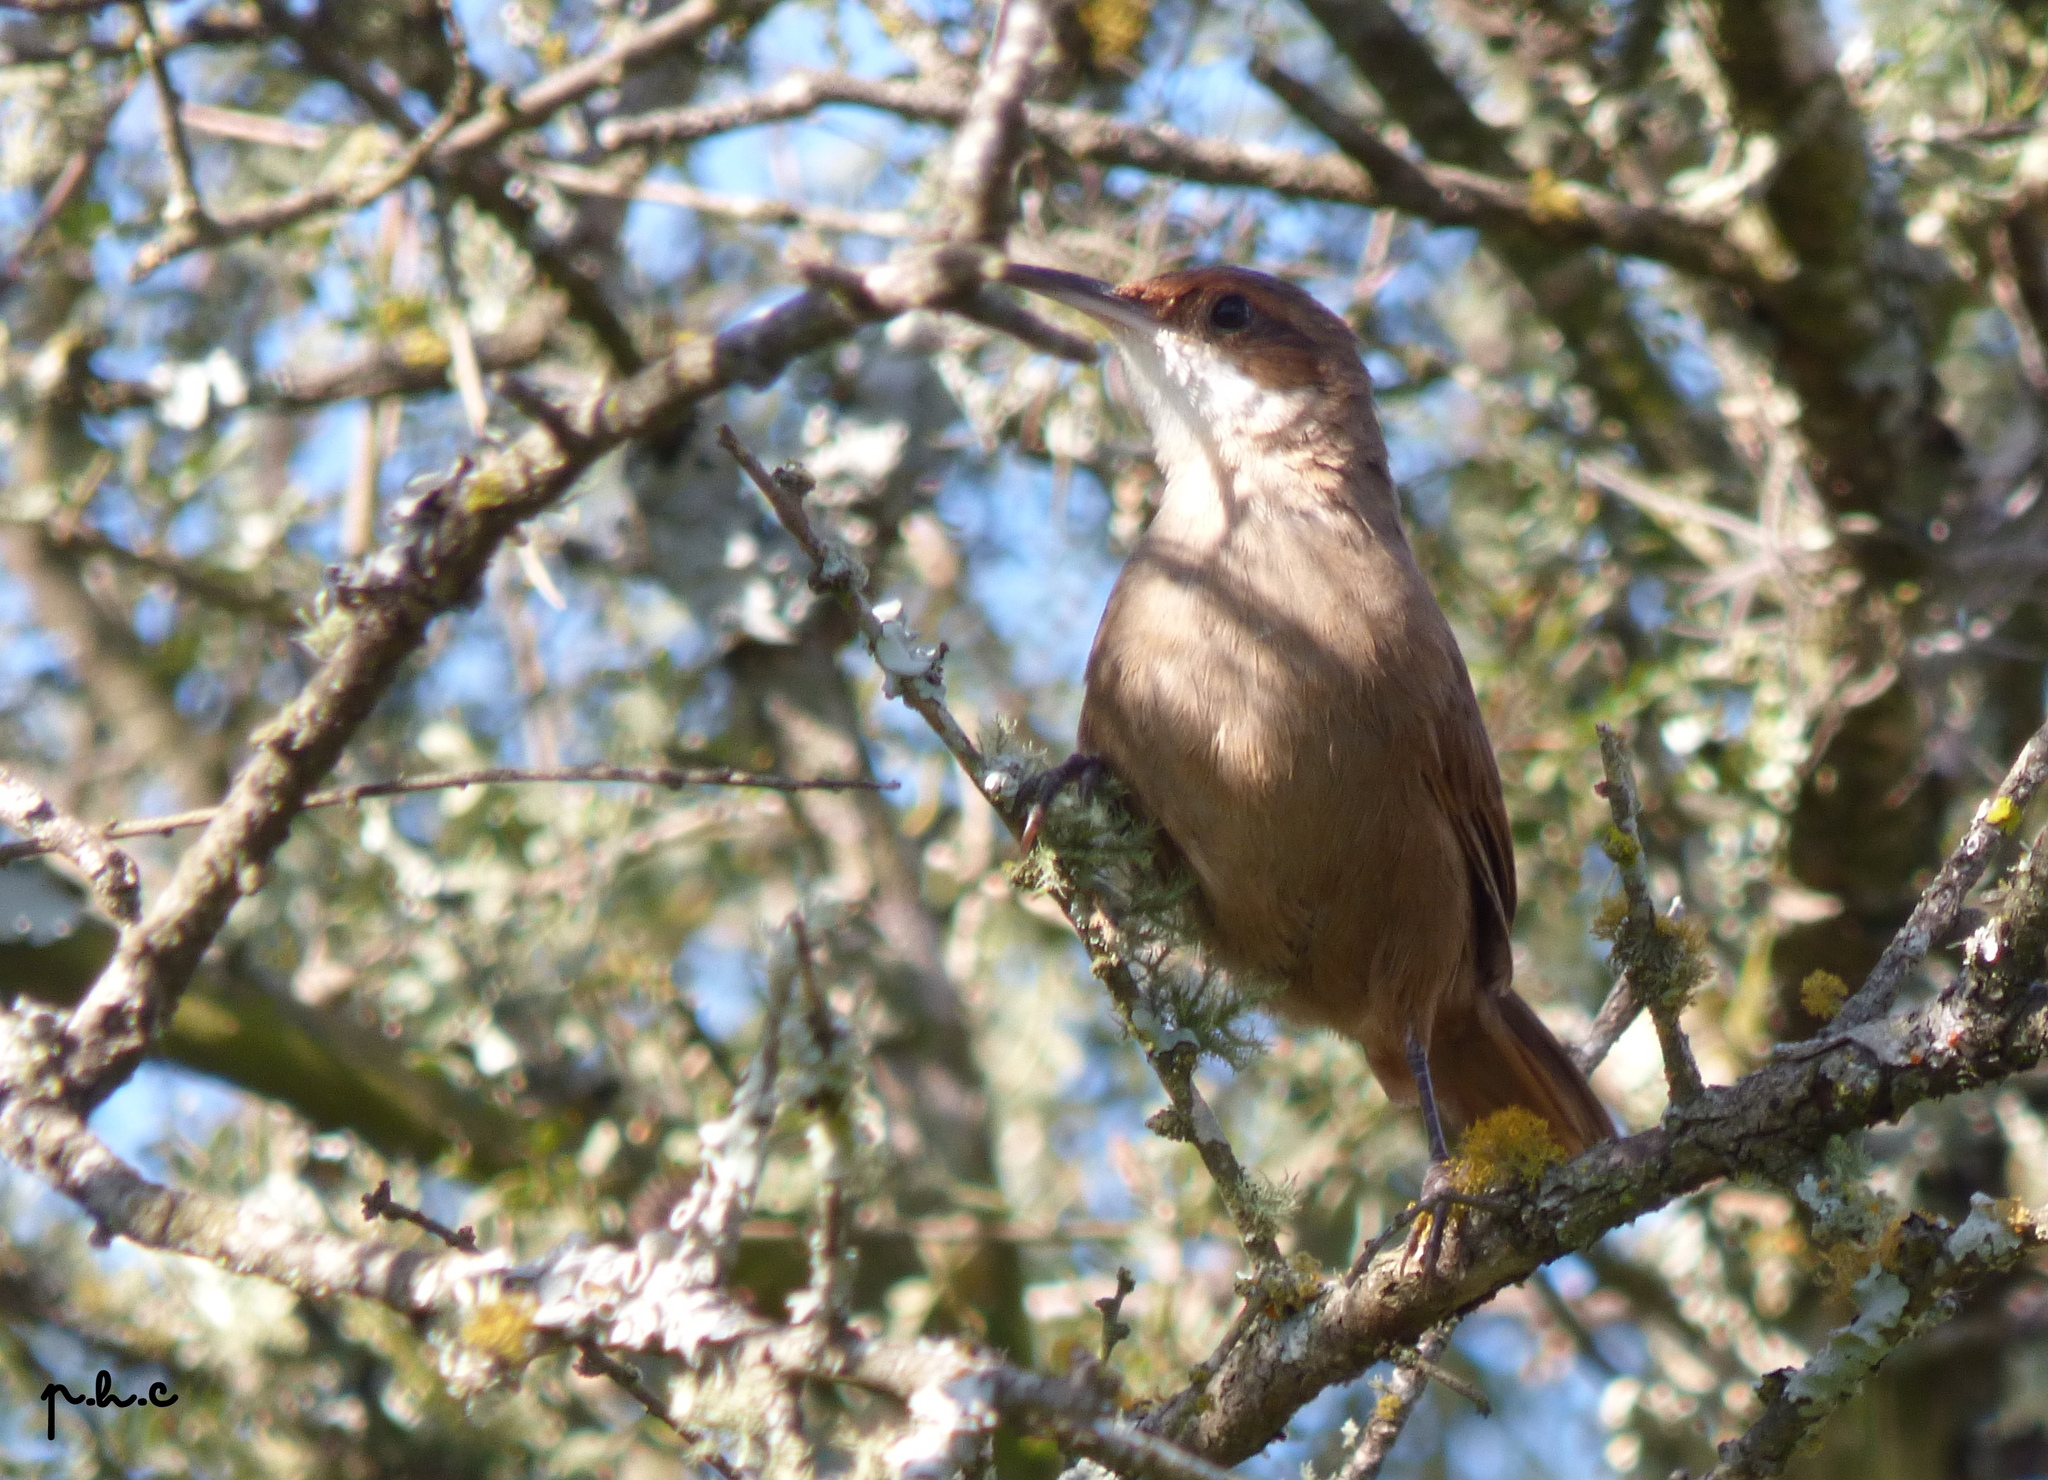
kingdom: Animalia
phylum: Chordata
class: Aves
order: Passeriformes
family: Furnariidae
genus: Upucerthia
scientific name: Upucerthia certhioides
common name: Chaco earthcreeper
